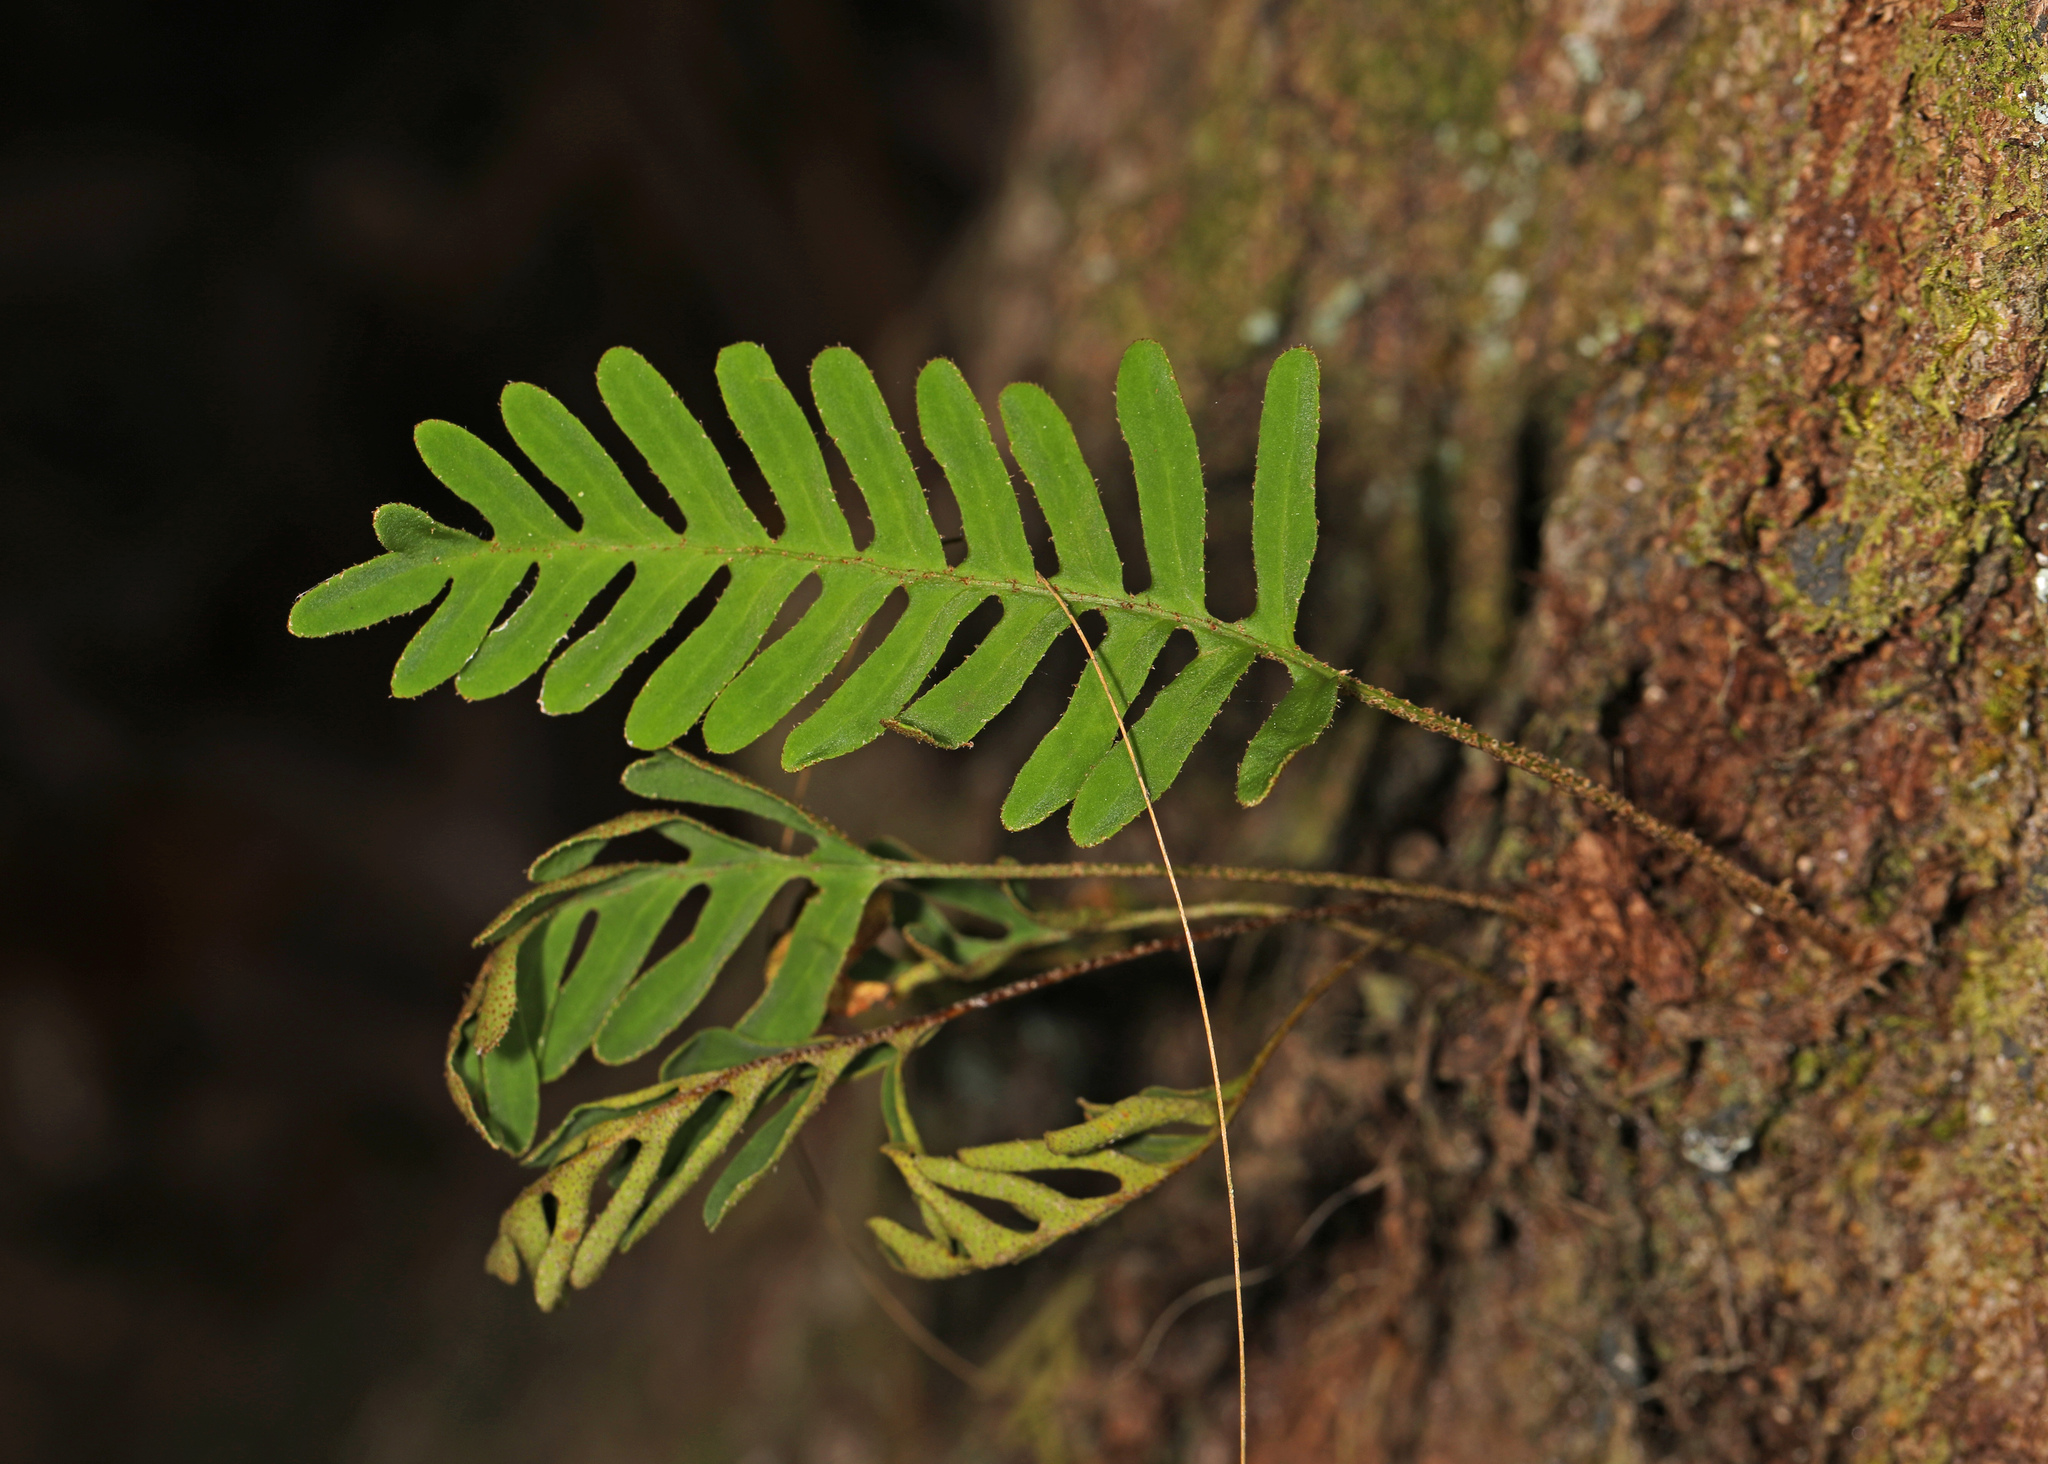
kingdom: Plantae
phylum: Tracheophyta
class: Polypodiopsida
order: Polypodiales
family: Polypodiaceae
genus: Pleopeltis
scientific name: Pleopeltis michauxiana
